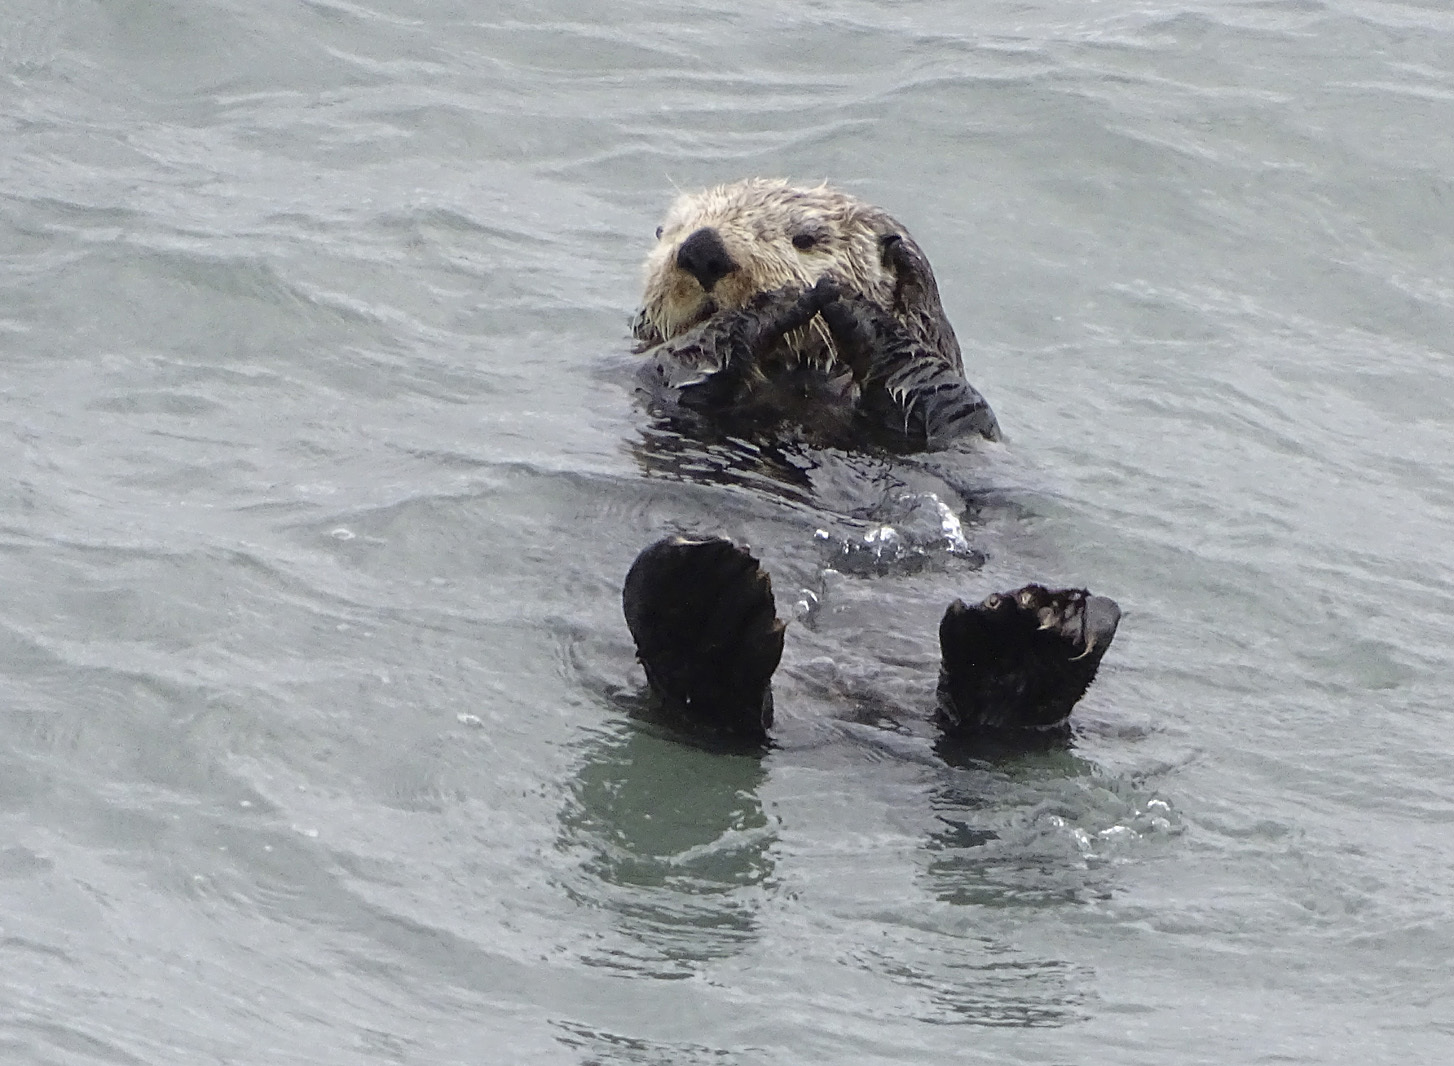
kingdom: Animalia
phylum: Chordata
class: Mammalia
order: Carnivora
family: Mustelidae
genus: Enhydra
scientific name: Enhydra lutris
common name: Sea otter
